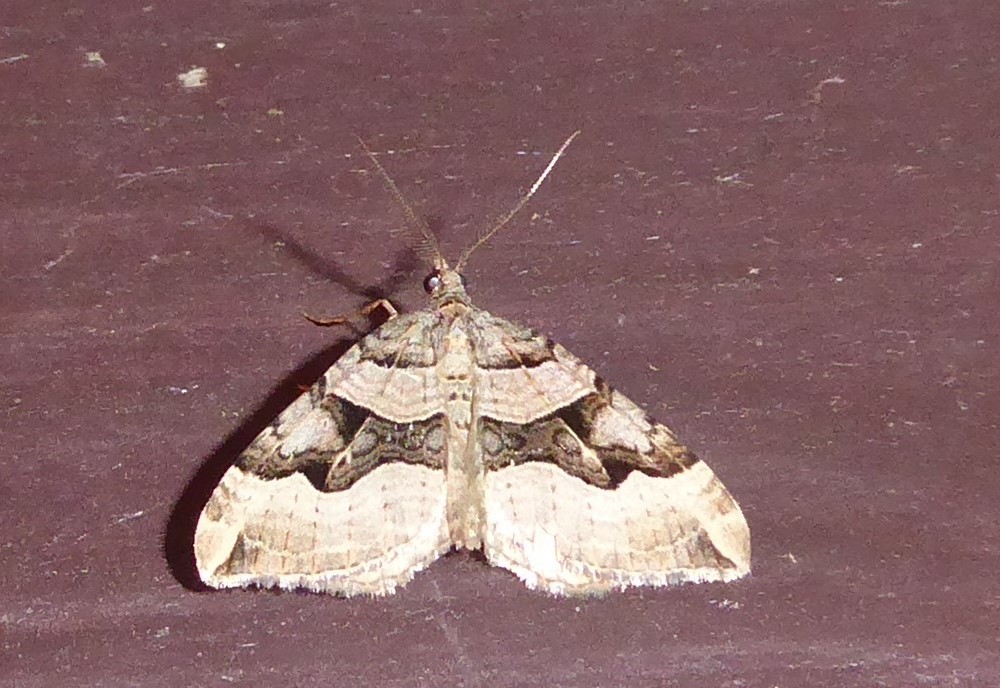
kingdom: Animalia
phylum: Arthropoda
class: Insecta
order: Lepidoptera
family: Geometridae
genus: Xanthorhoe
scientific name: Xanthorhoe semifissata
